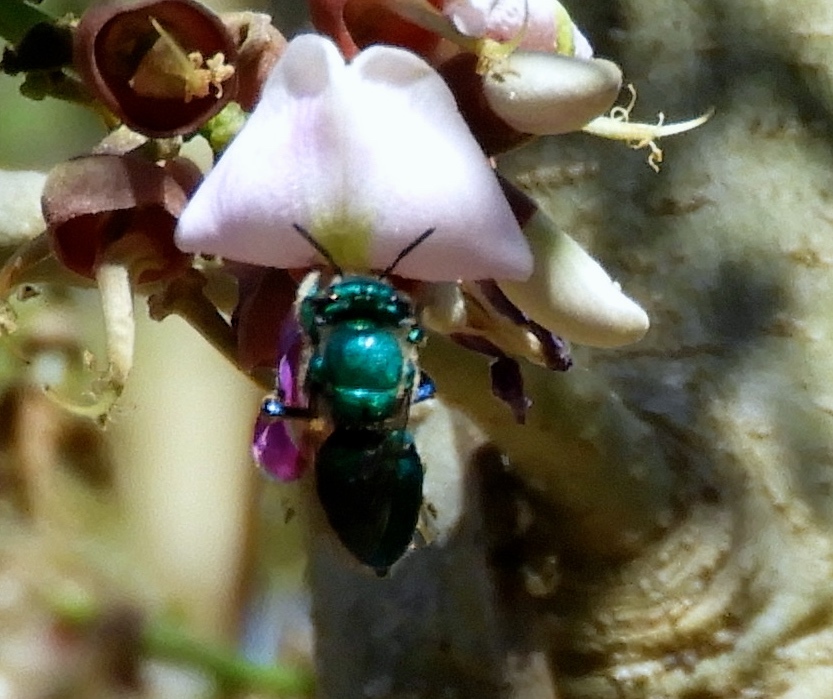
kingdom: Animalia
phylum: Arthropoda
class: Insecta
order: Hymenoptera
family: Apidae
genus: Euglossa
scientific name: Euglossa
